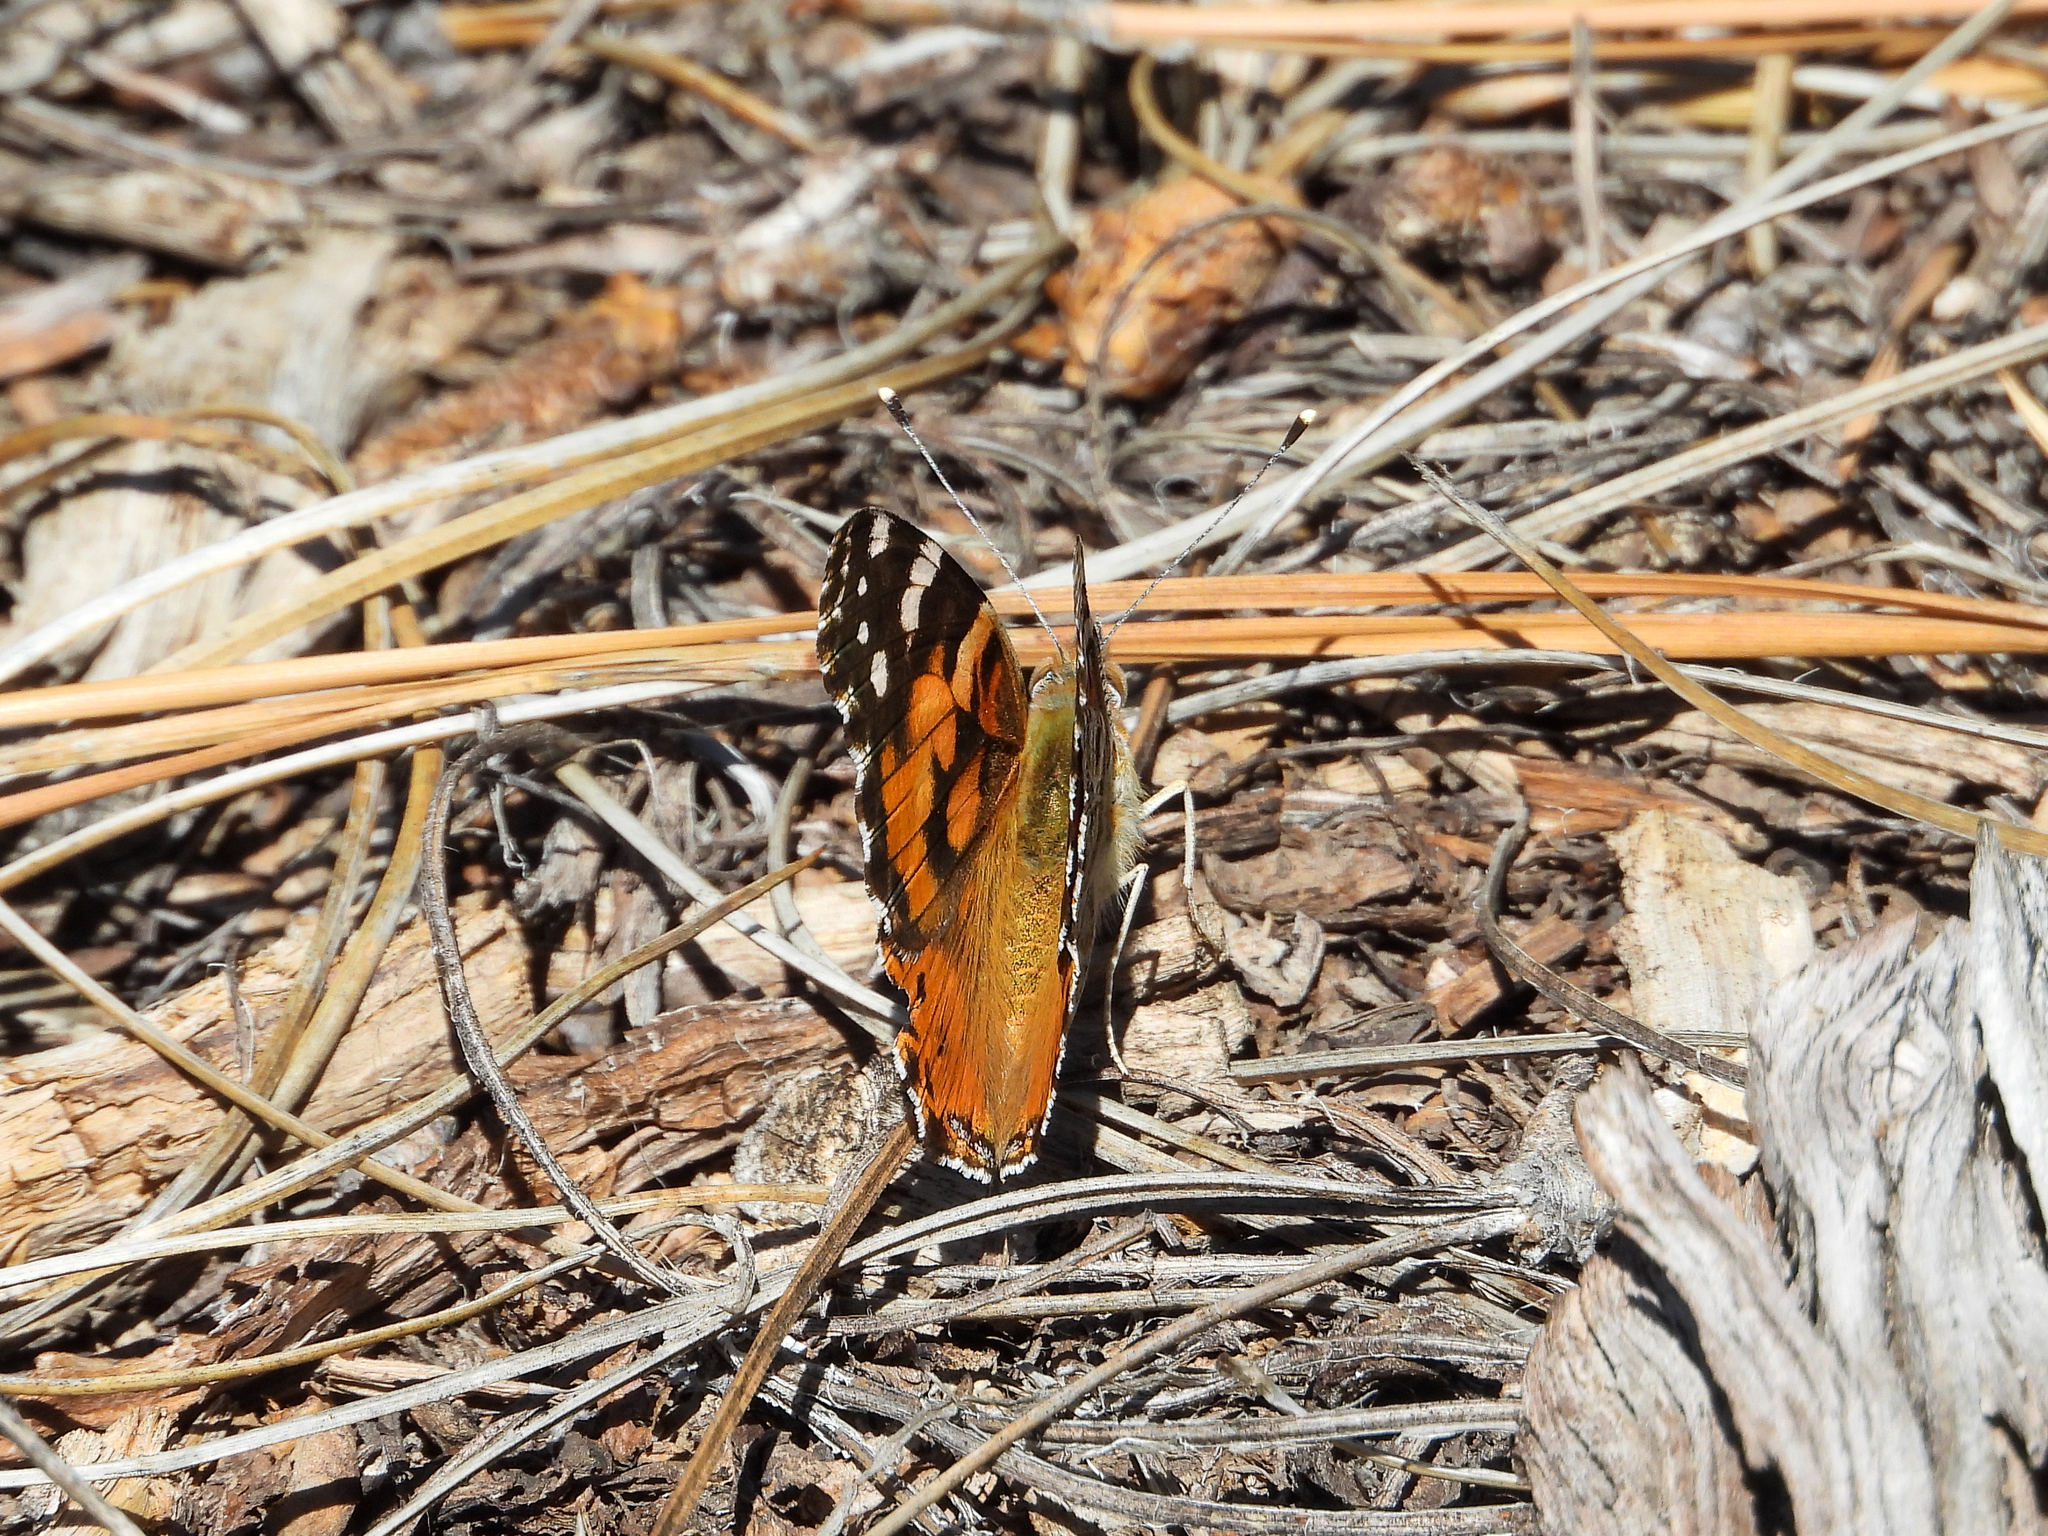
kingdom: Animalia
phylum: Arthropoda
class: Insecta
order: Lepidoptera
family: Nymphalidae
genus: Vanessa
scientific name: Vanessa cardui
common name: Painted lady
